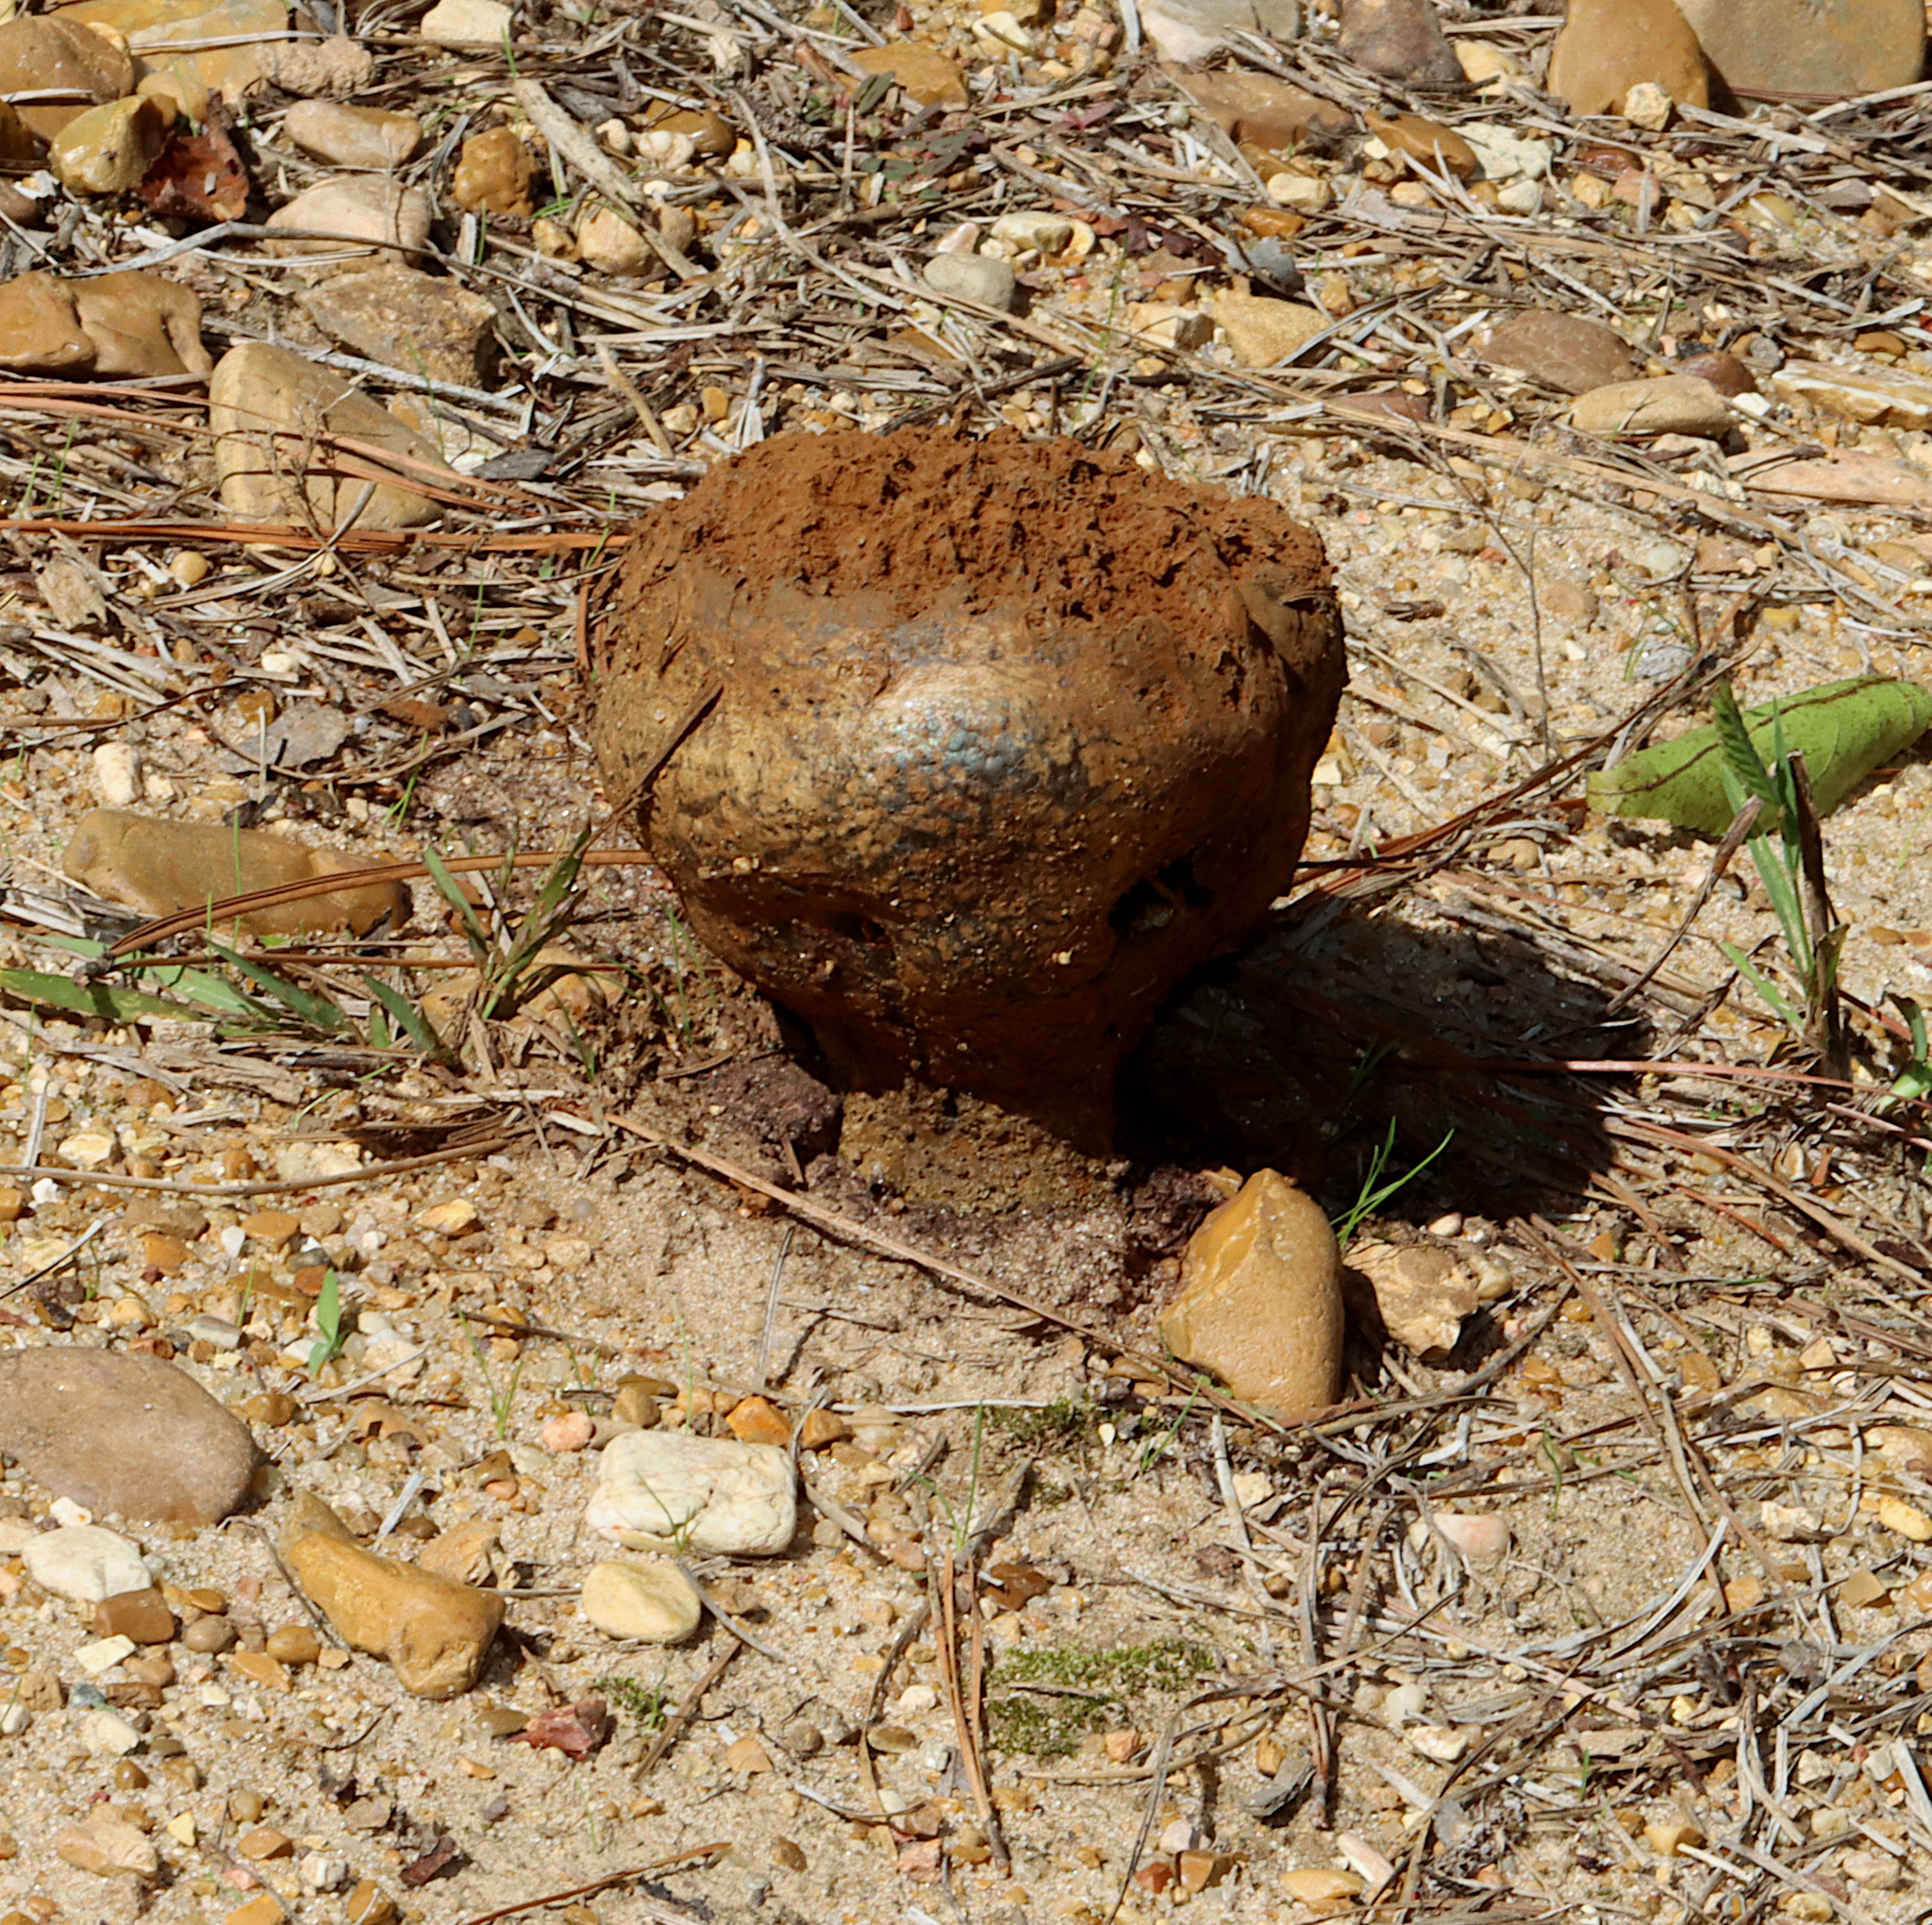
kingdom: Fungi
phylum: Basidiomycota
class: Agaricomycetes
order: Boletales
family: Sclerodermataceae
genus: Pisolithus
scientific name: Pisolithus arenarius
